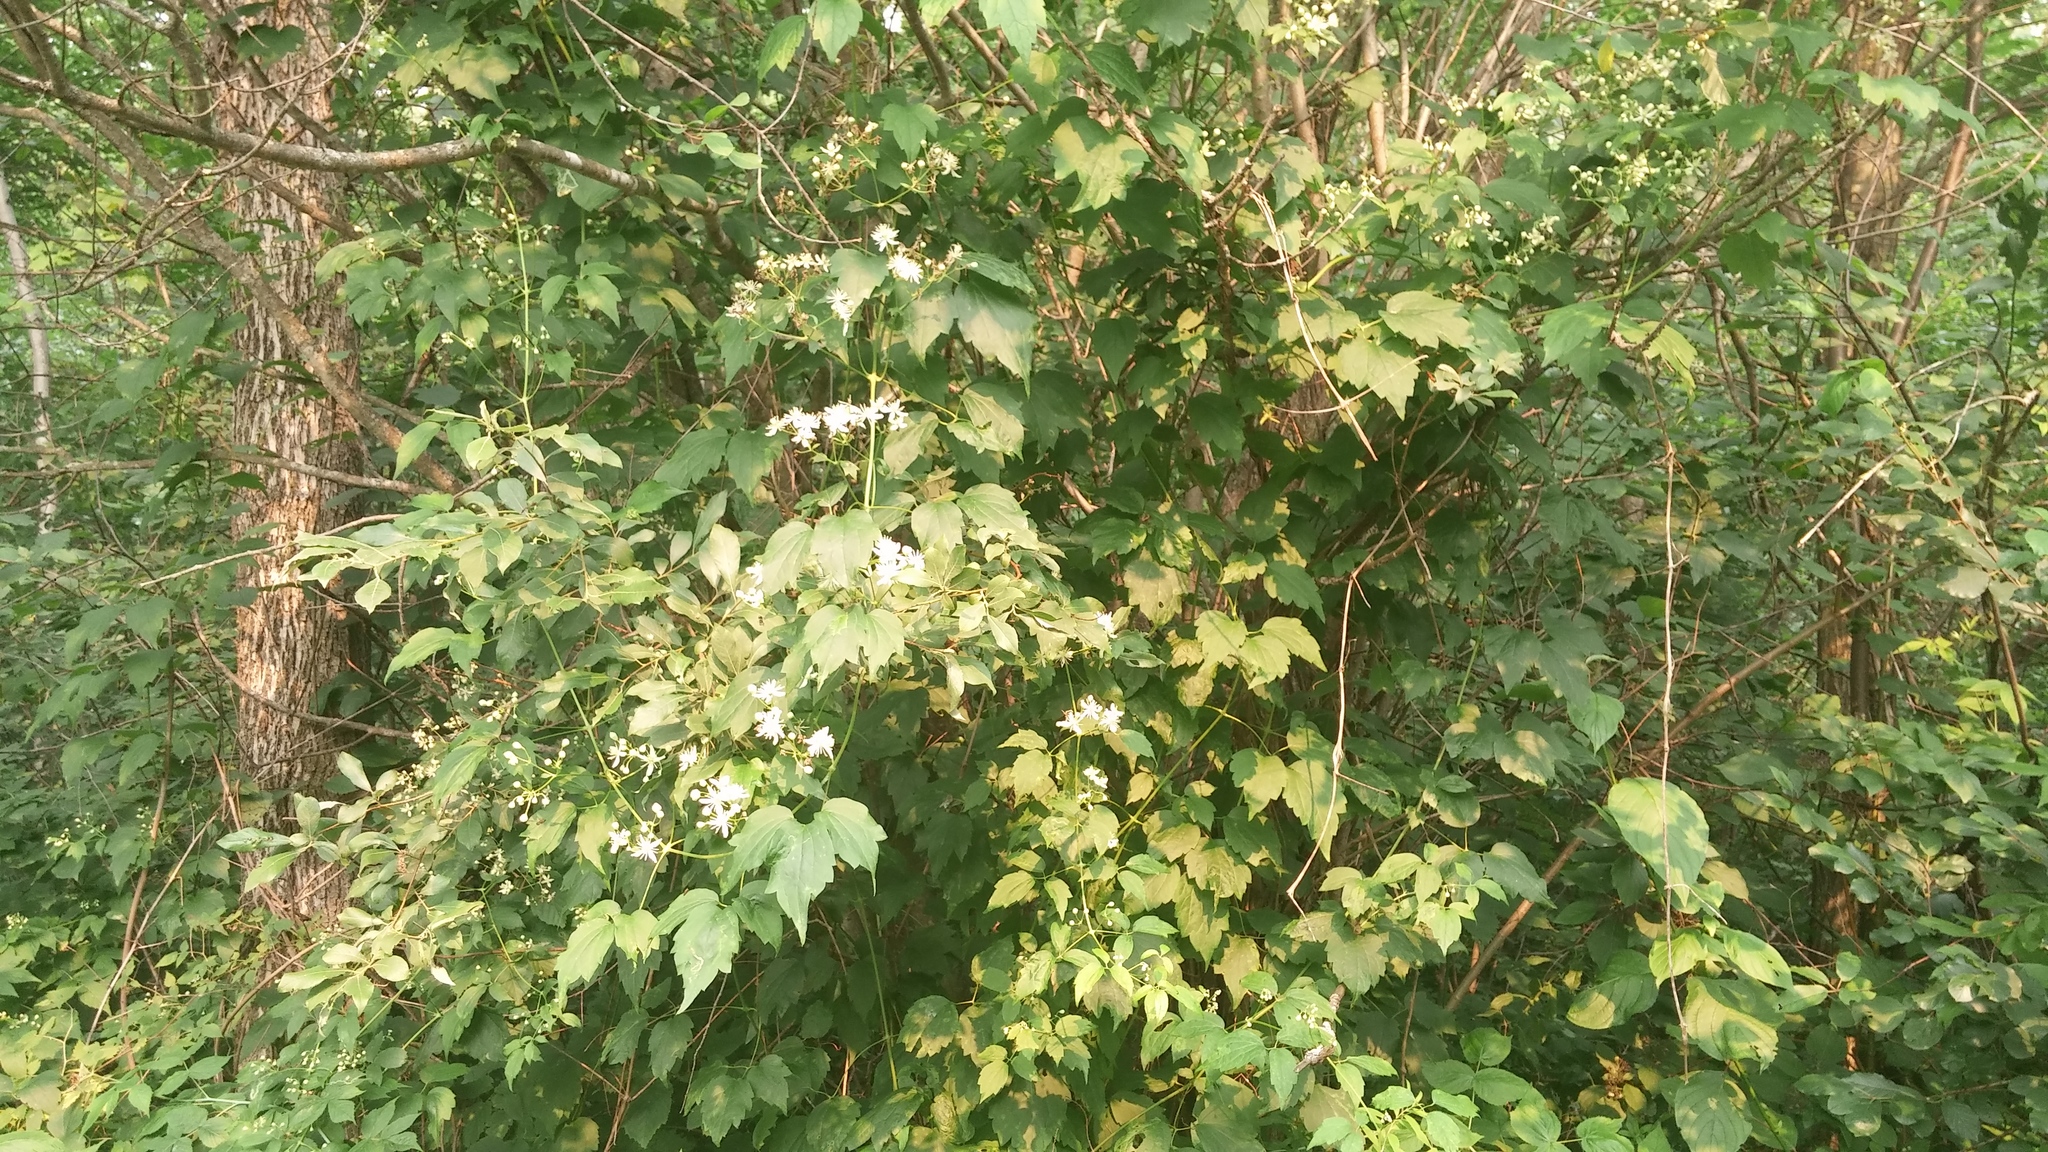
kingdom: Plantae
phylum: Tracheophyta
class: Magnoliopsida
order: Ranunculales
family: Ranunculaceae
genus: Clematis
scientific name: Clematis virginiana
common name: Virgin's-bower
